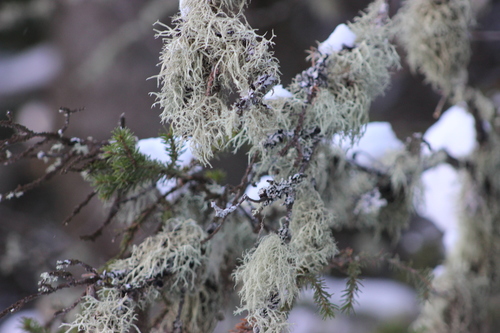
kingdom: Fungi
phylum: Ascomycota
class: Lecanoromycetes
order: Lecanorales
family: Parmeliaceae
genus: Evernia
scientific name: Evernia mesomorpha
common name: Boreal oak moss lichen
